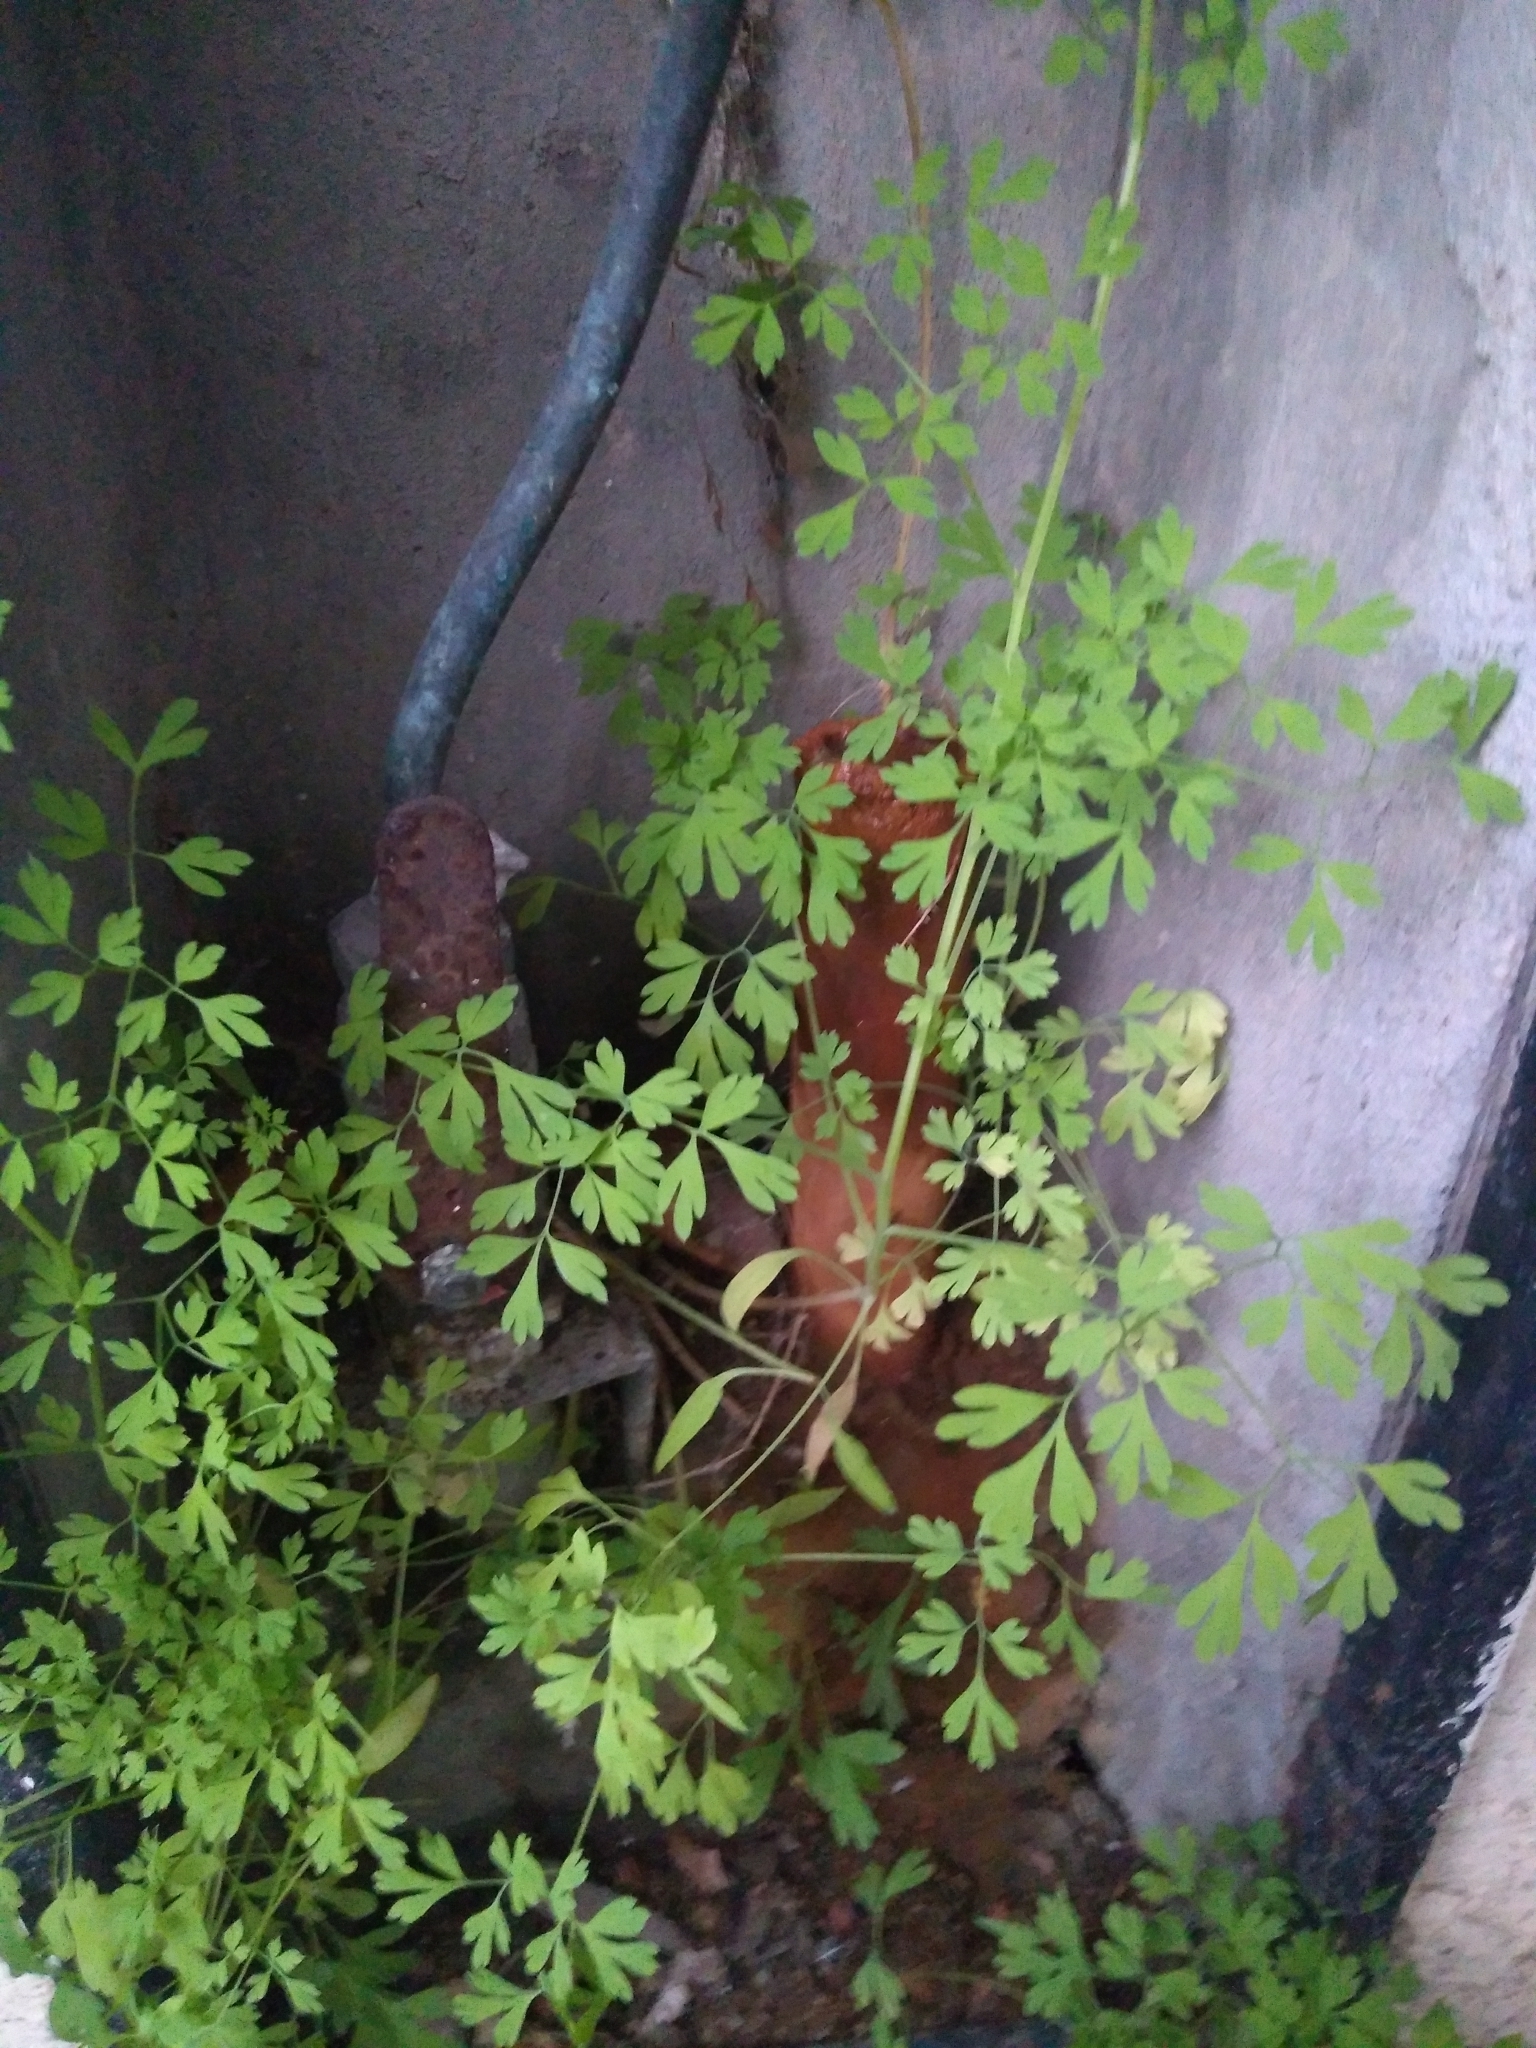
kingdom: Plantae
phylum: Tracheophyta
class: Magnoliopsida
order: Ranunculales
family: Papaveraceae
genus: Fumaria
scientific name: Fumaria capreolata
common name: White ramping-fumitory
